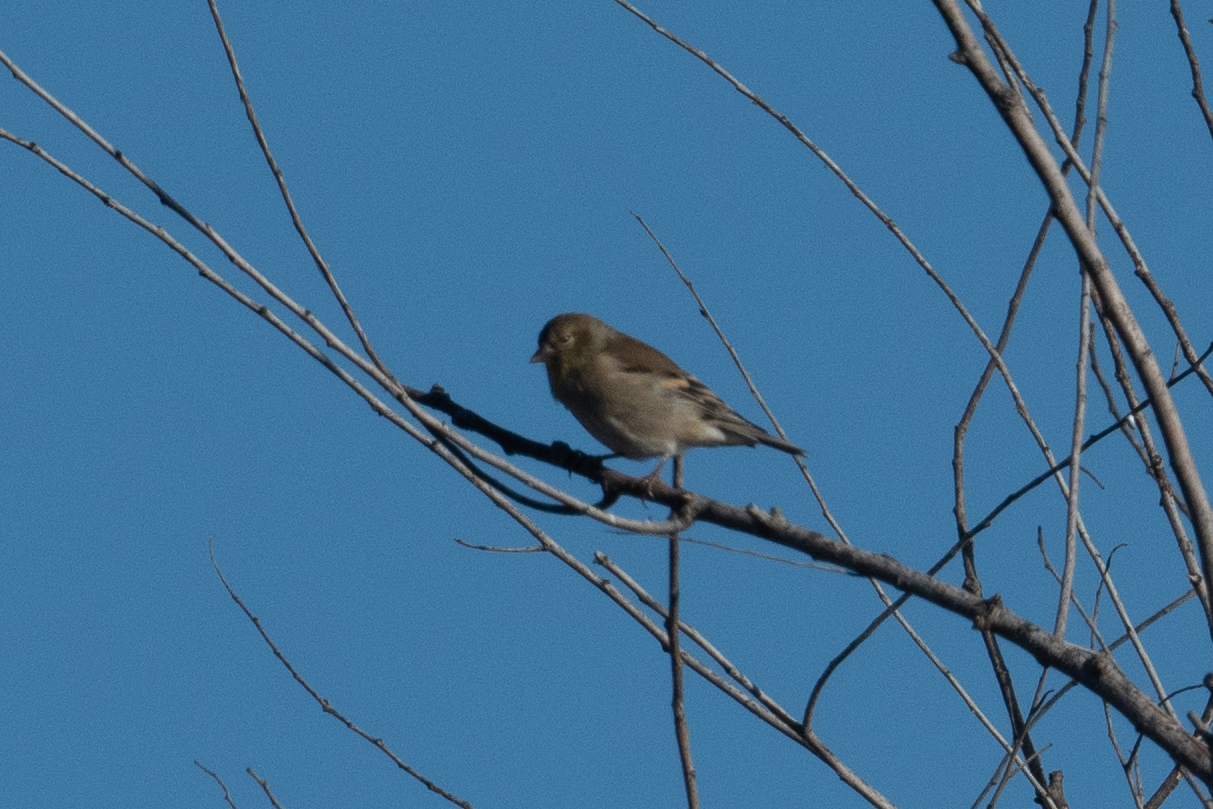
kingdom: Animalia
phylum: Chordata
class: Aves
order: Passeriformes
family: Fringillidae
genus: Spinus
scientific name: Spinus tristis
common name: American goldfinch
